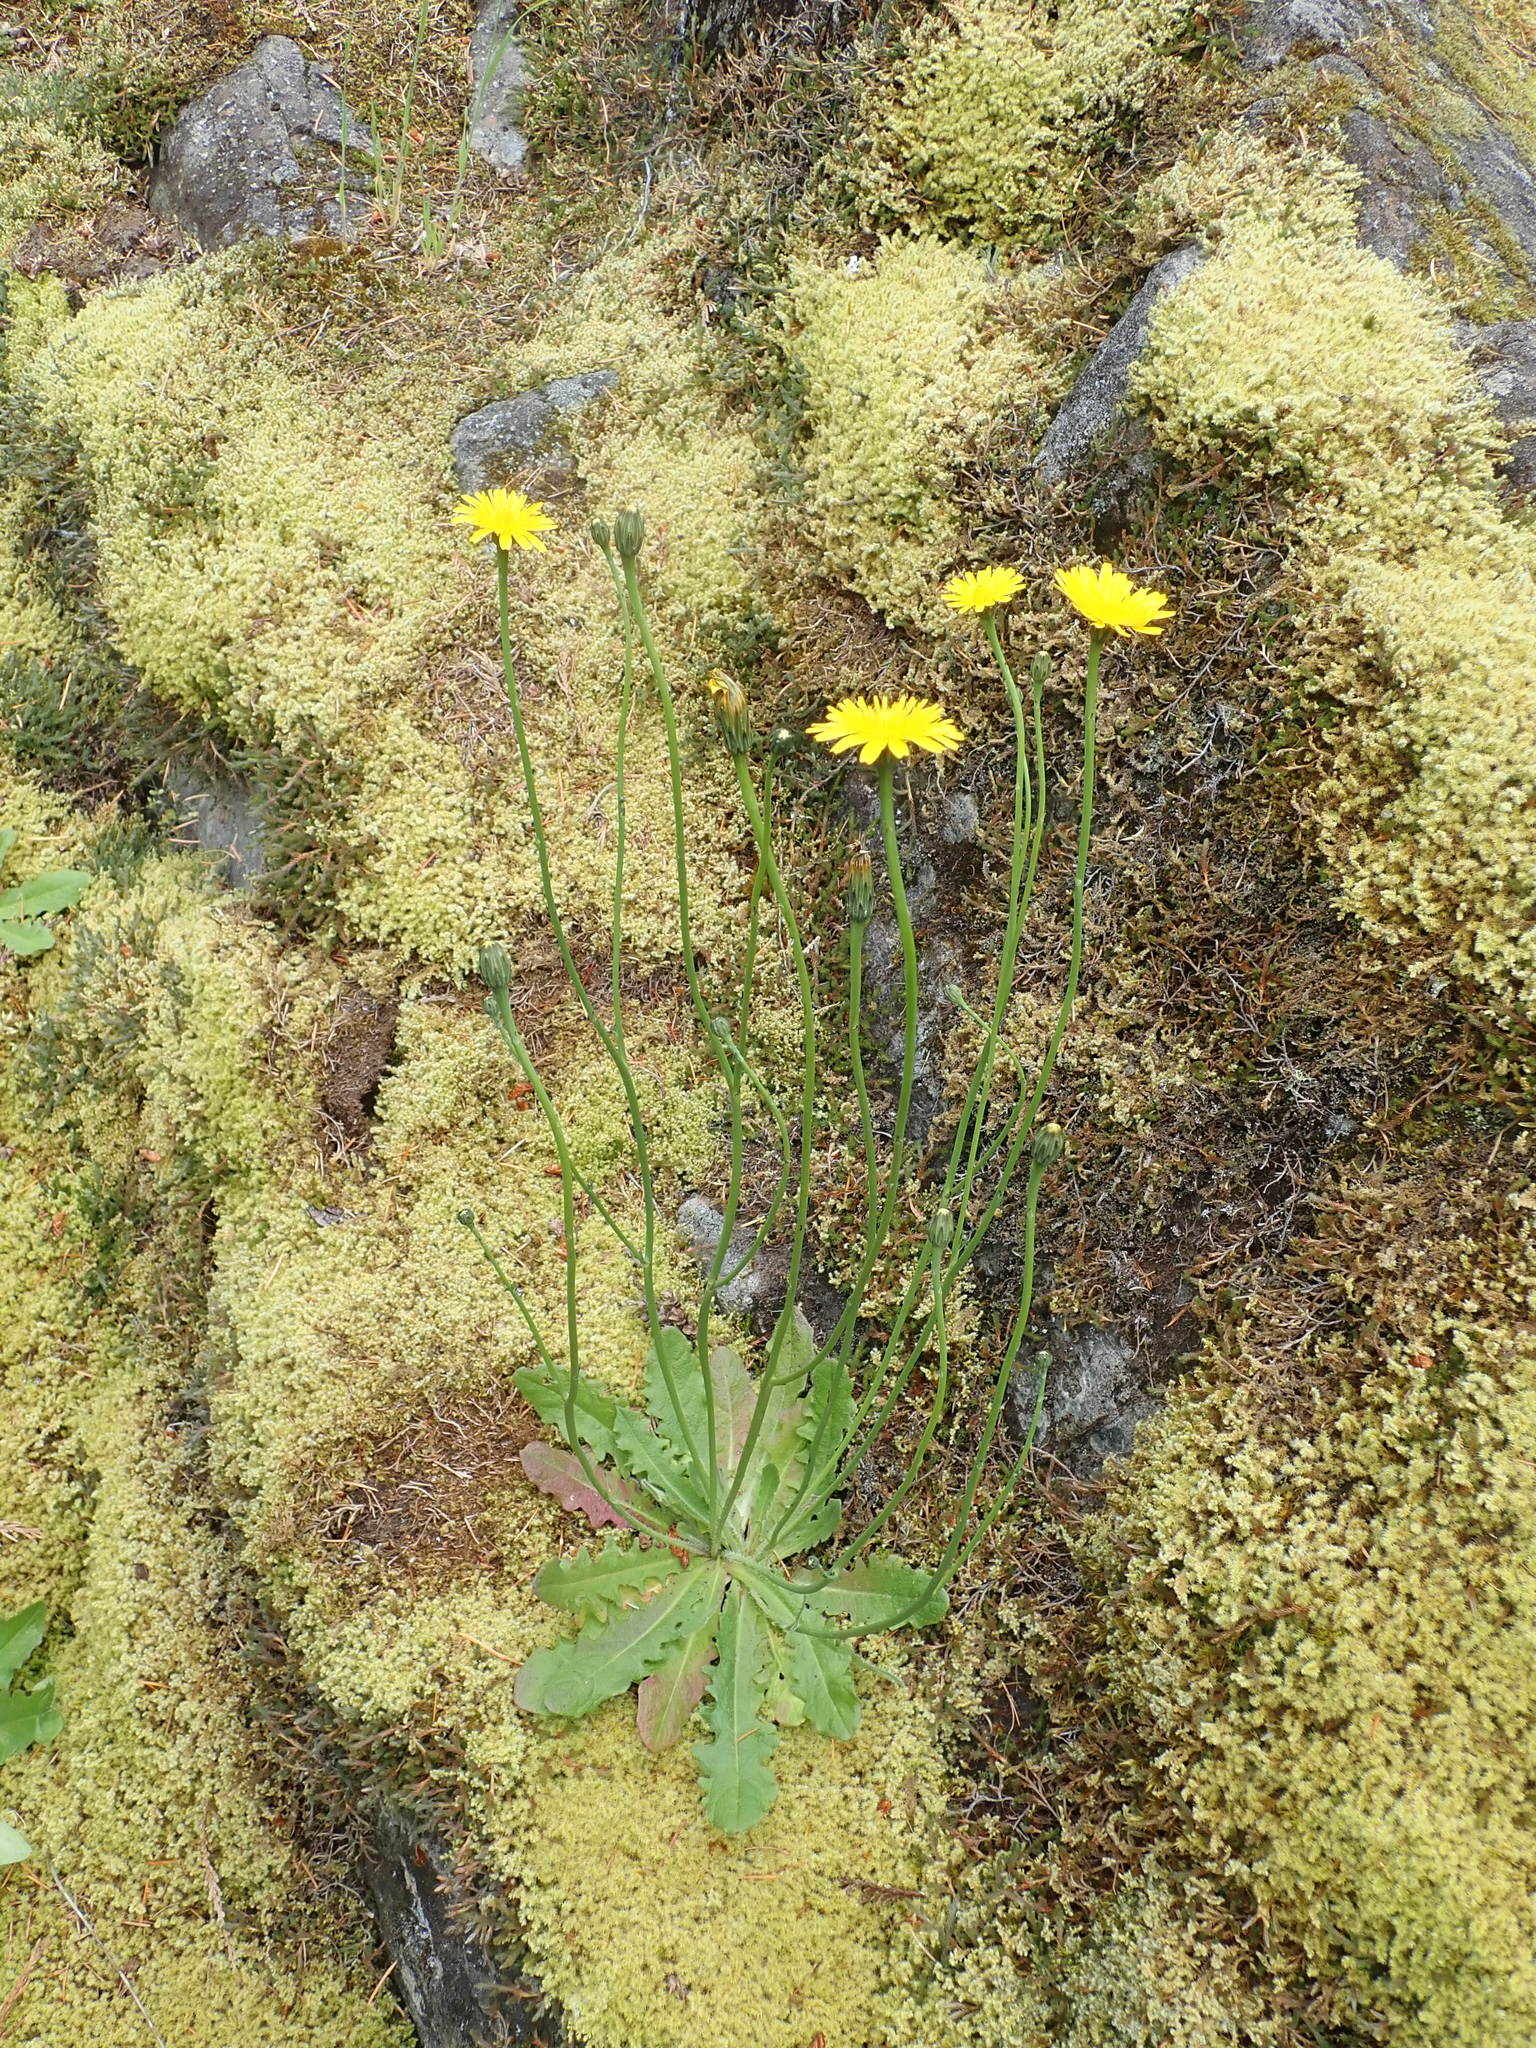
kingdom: Plantae
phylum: Tracheophyta
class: Magnoliopsida
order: Asterales
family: Asteraceae
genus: Hypochaeris
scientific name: Hypochaeris radicata
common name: Flatweed
